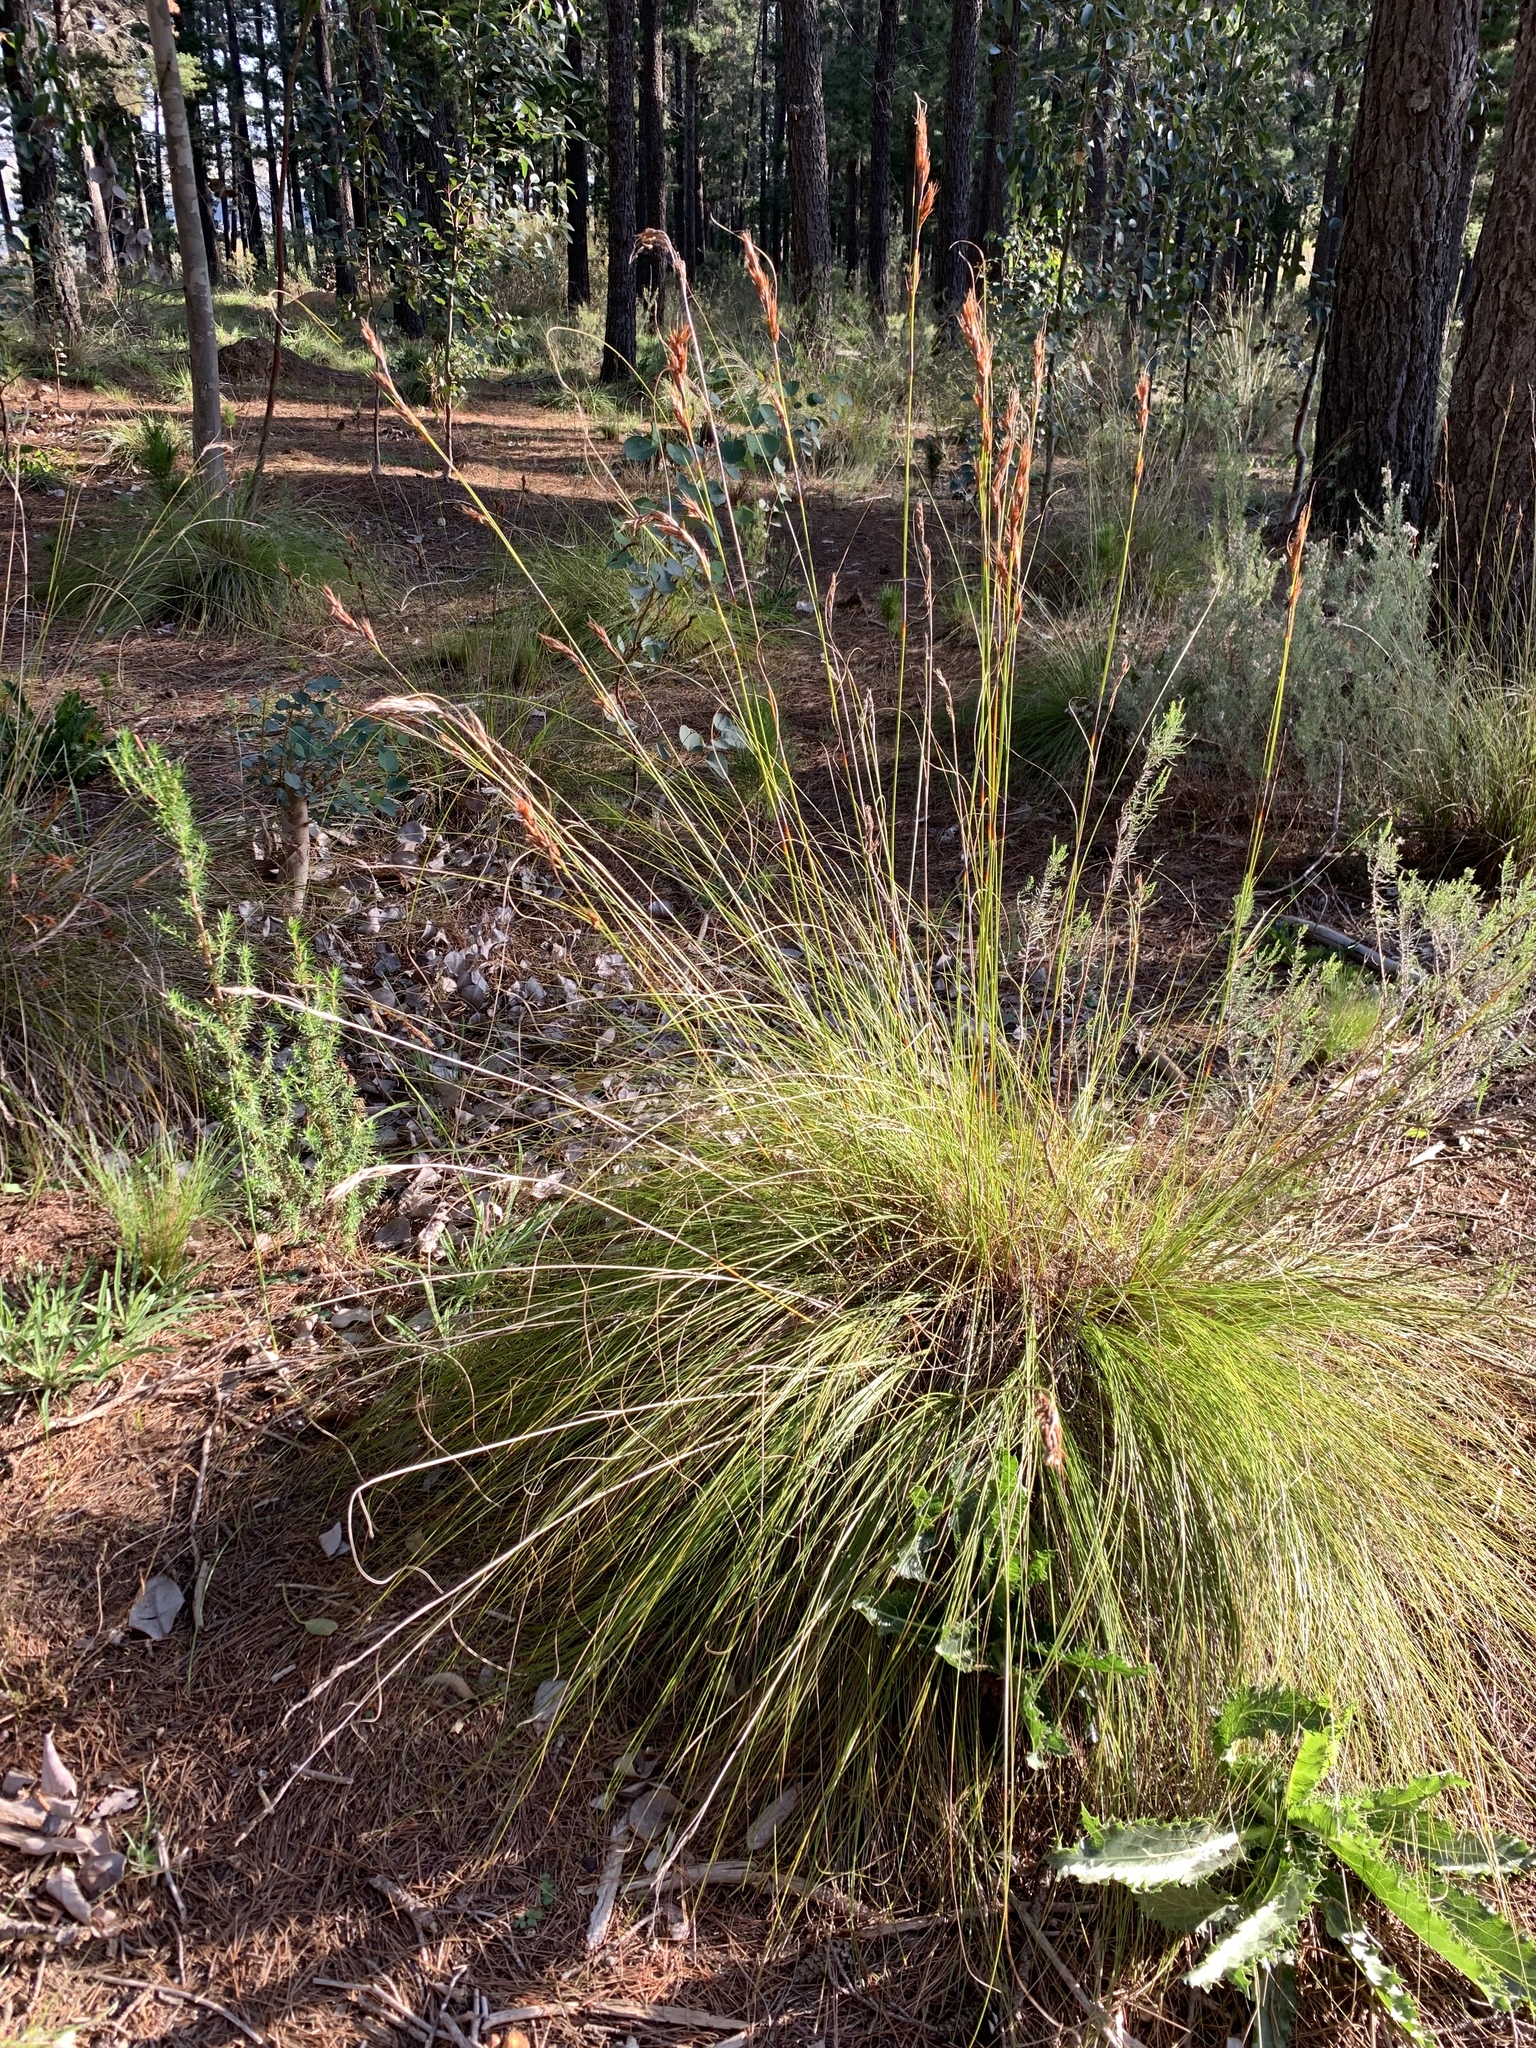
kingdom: Plantae
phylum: Tracheophyta
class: Liliopsida
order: Poales
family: Cyperaceae
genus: Tetraria
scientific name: Tetraria ustulata
